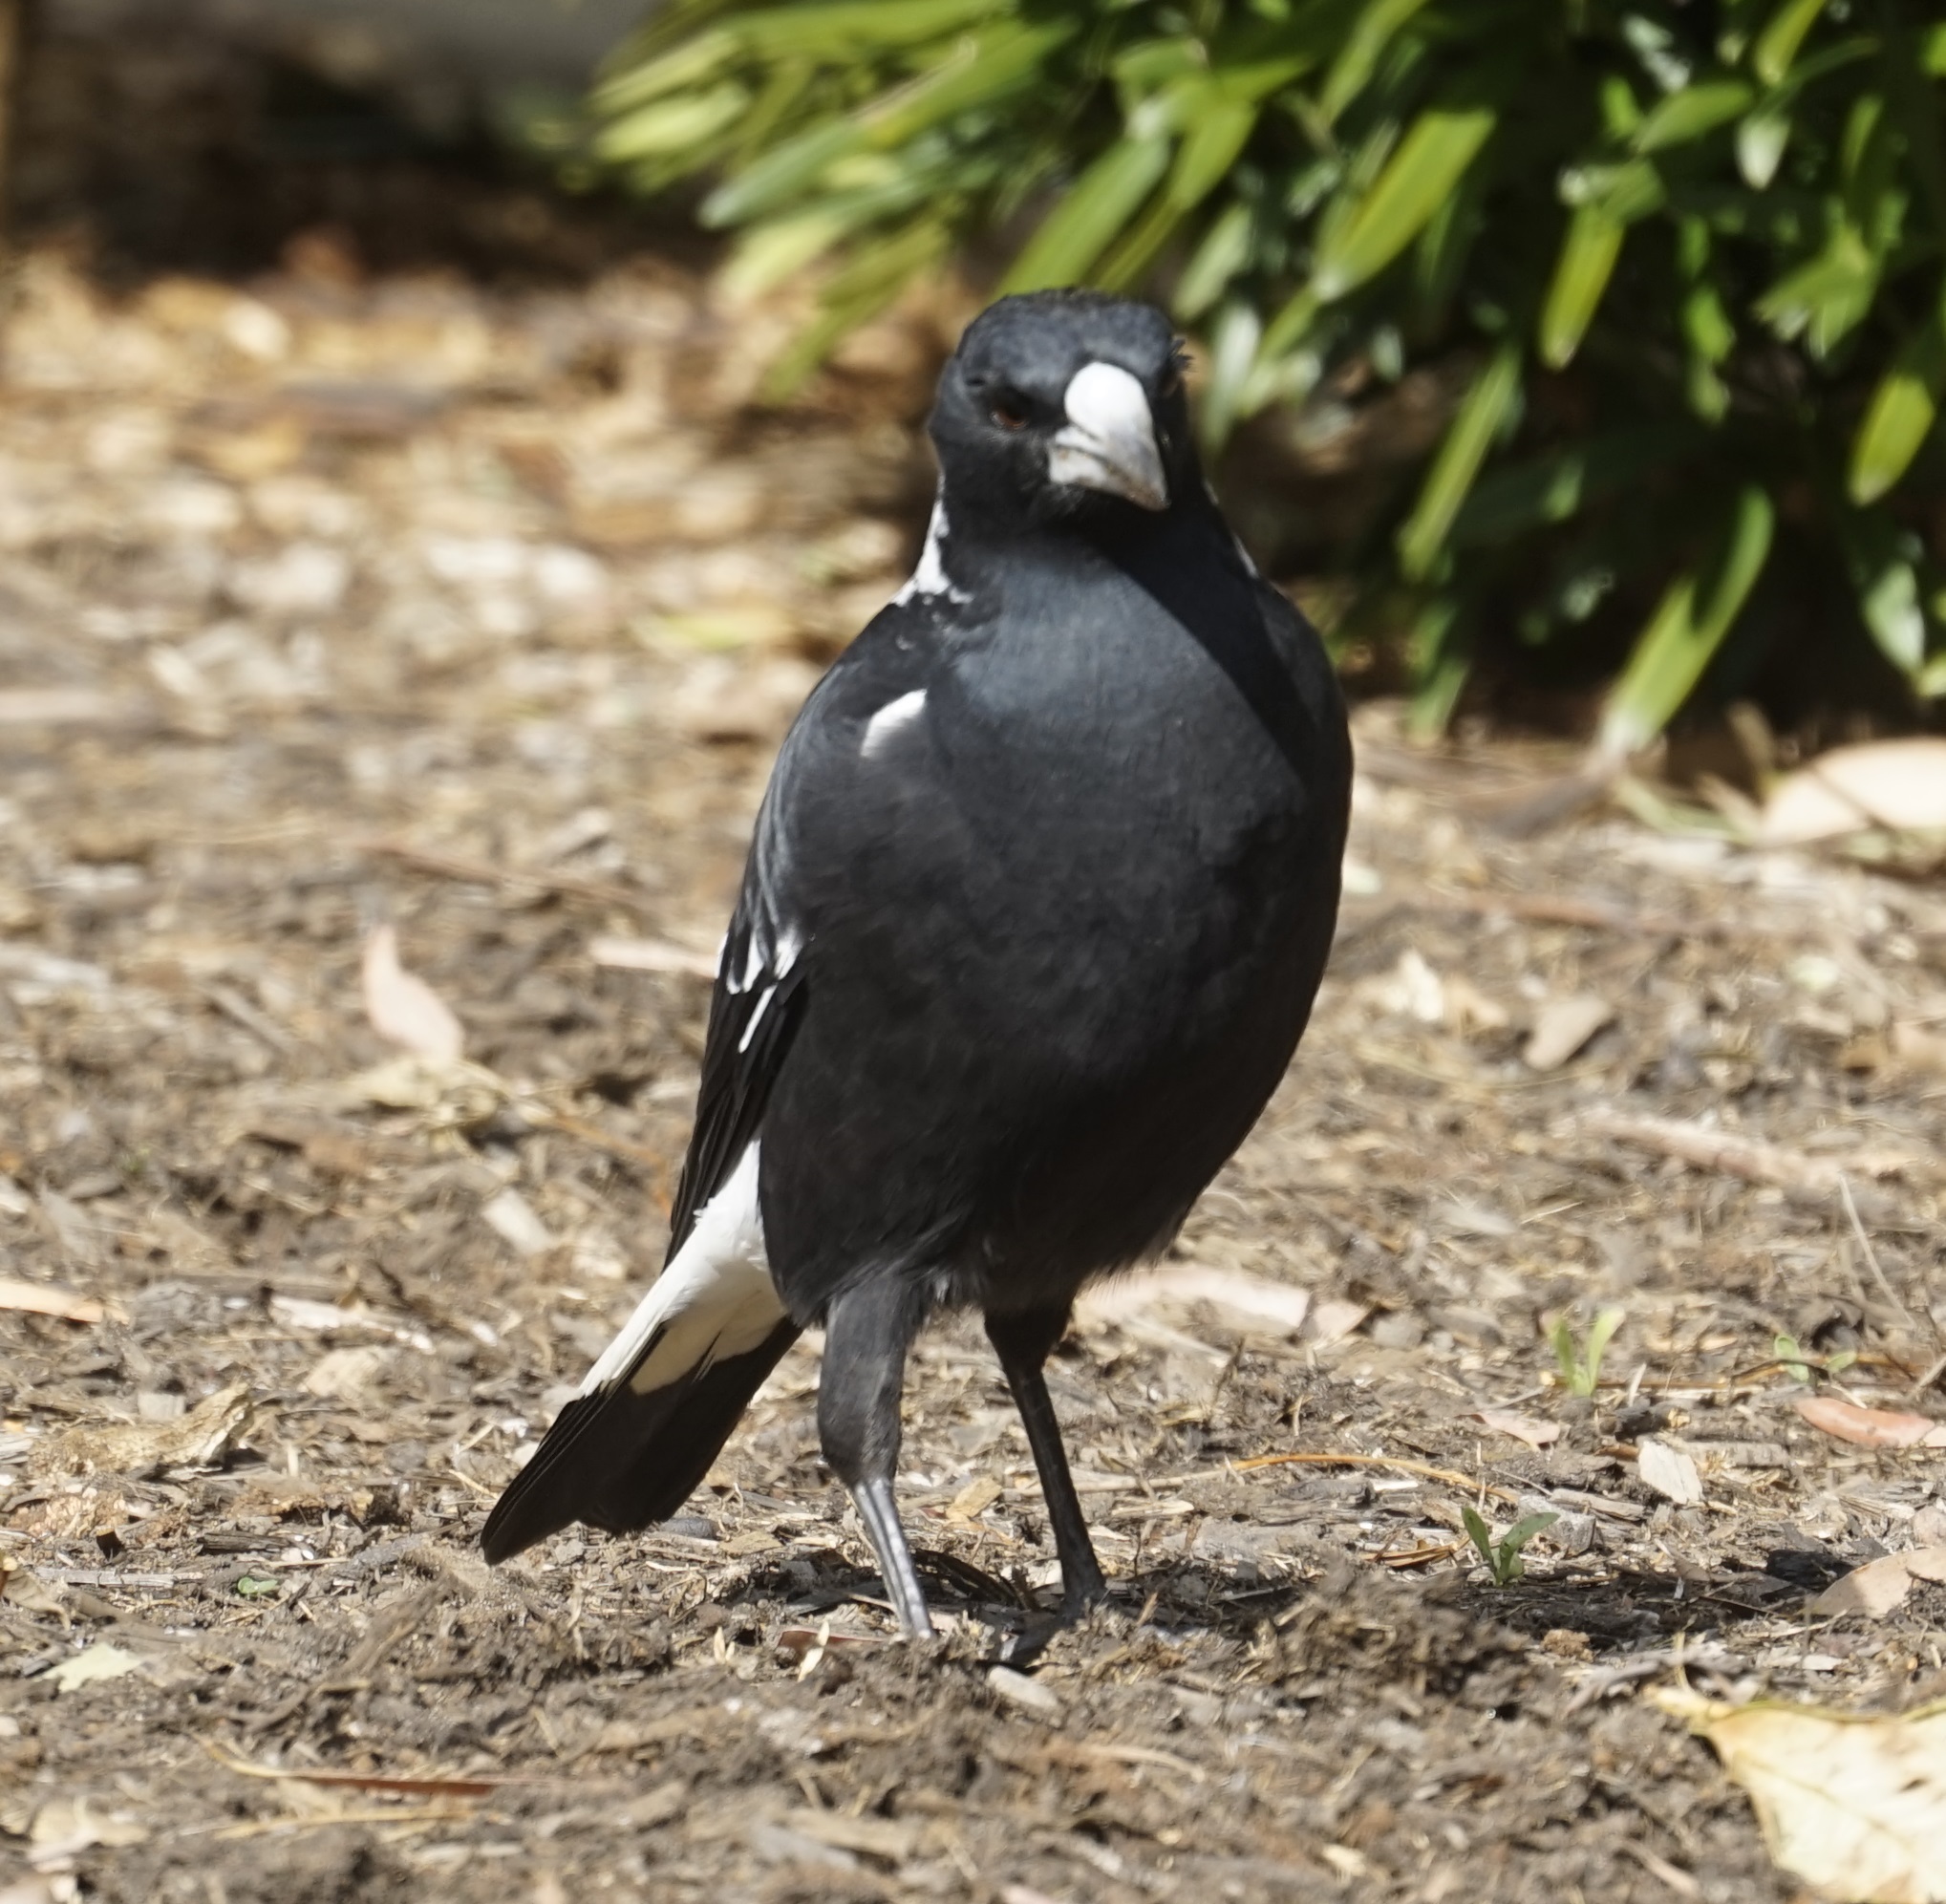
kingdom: Animalia
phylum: Chordata
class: Aves
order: Passeriformes
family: Cracticidae
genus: Gymnorhina
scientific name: Gymnorhina tibicen
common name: Australian magpie
